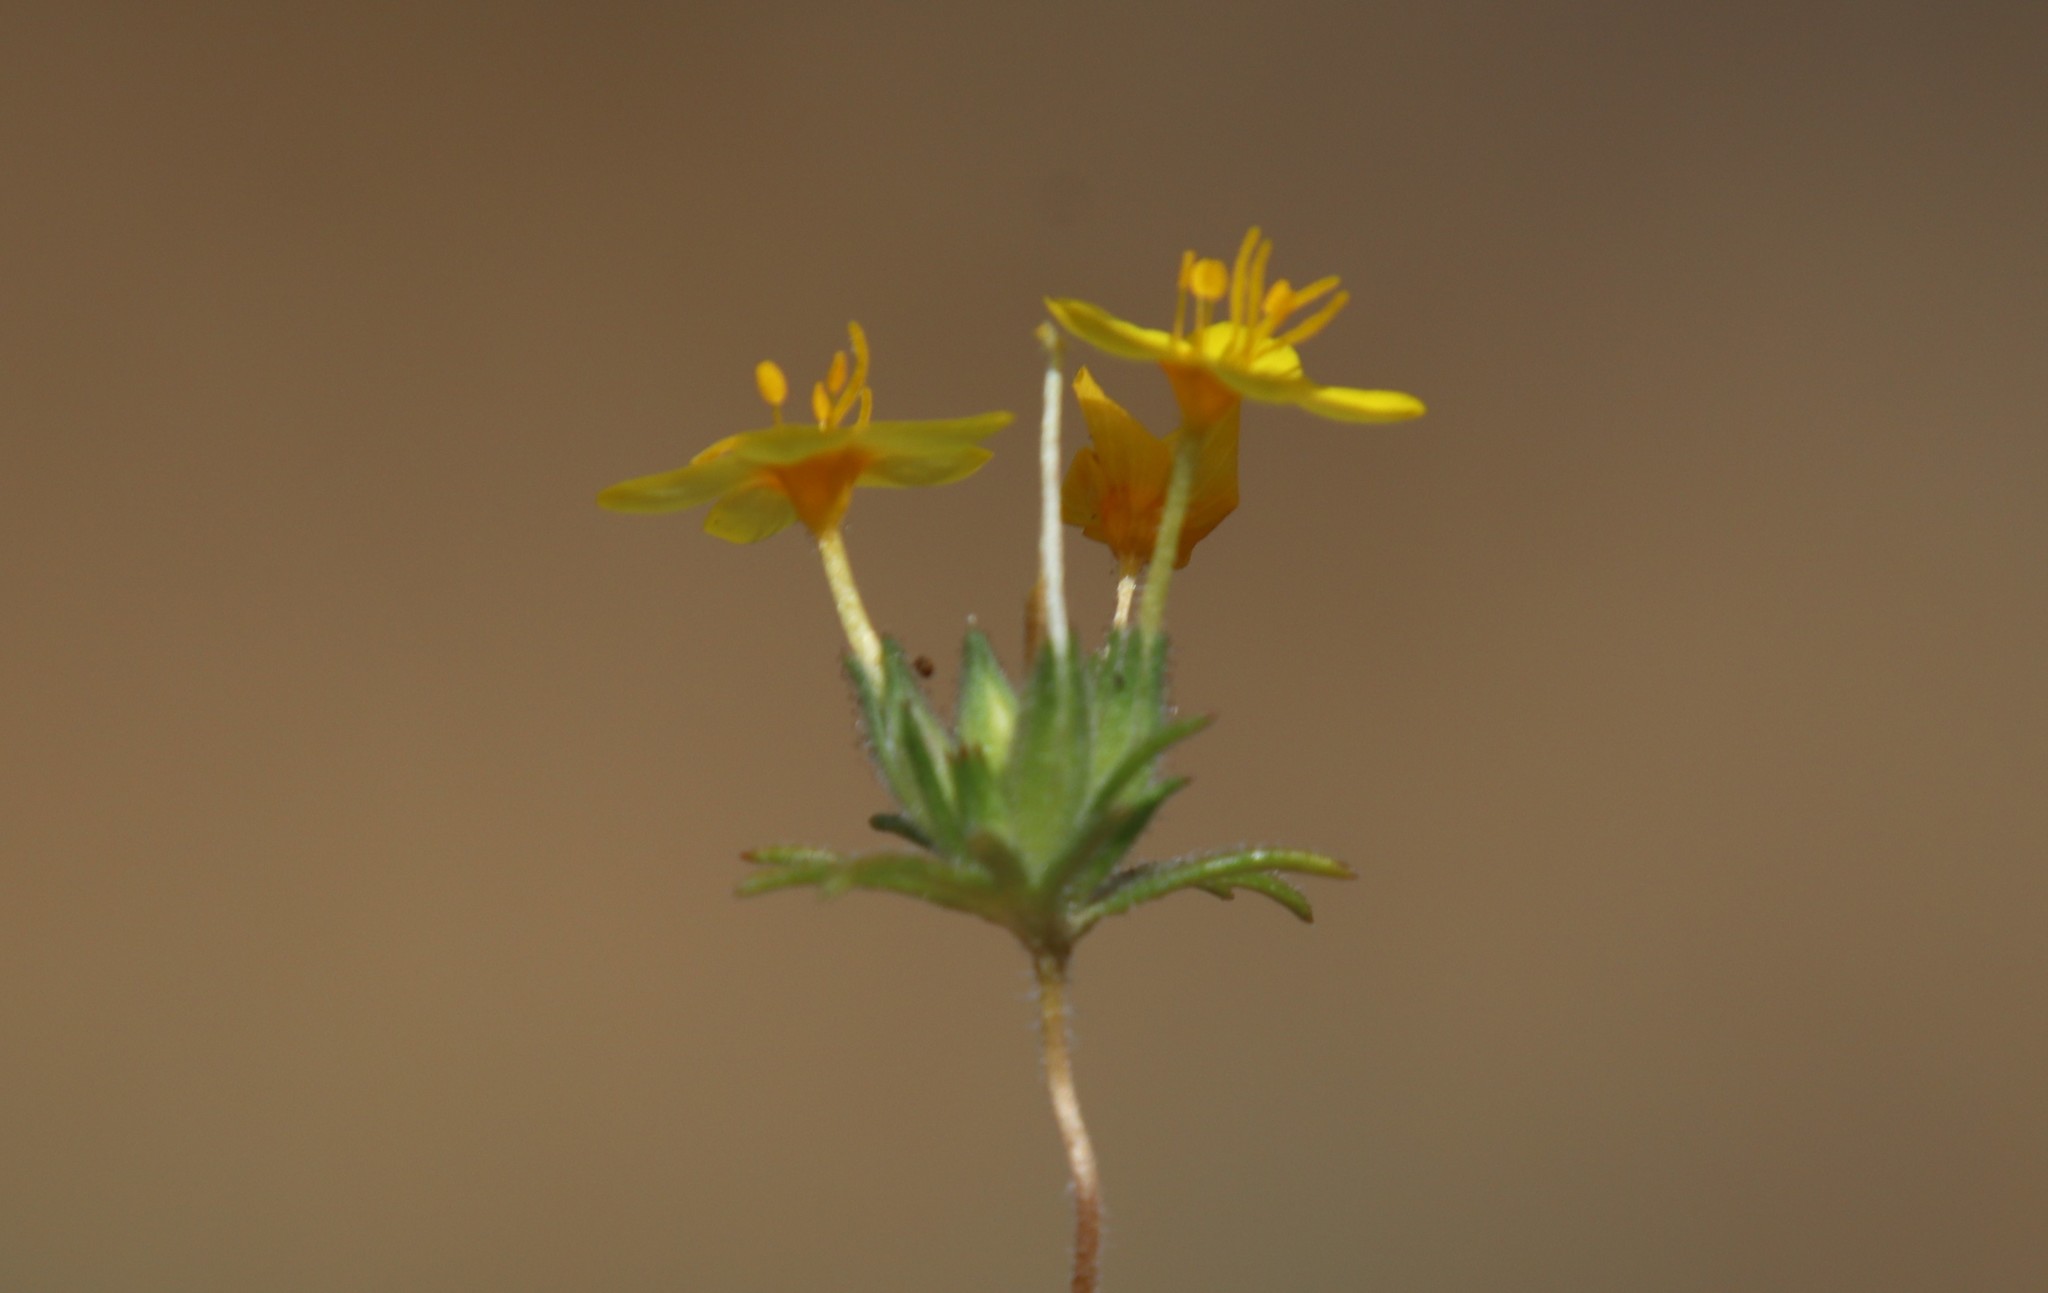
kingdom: Plantae
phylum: Tracheophyta
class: Magnoliopsida
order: Ericales
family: Polemoniaceae
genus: Leptosiphon
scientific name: Leptosiphon parviflorus
